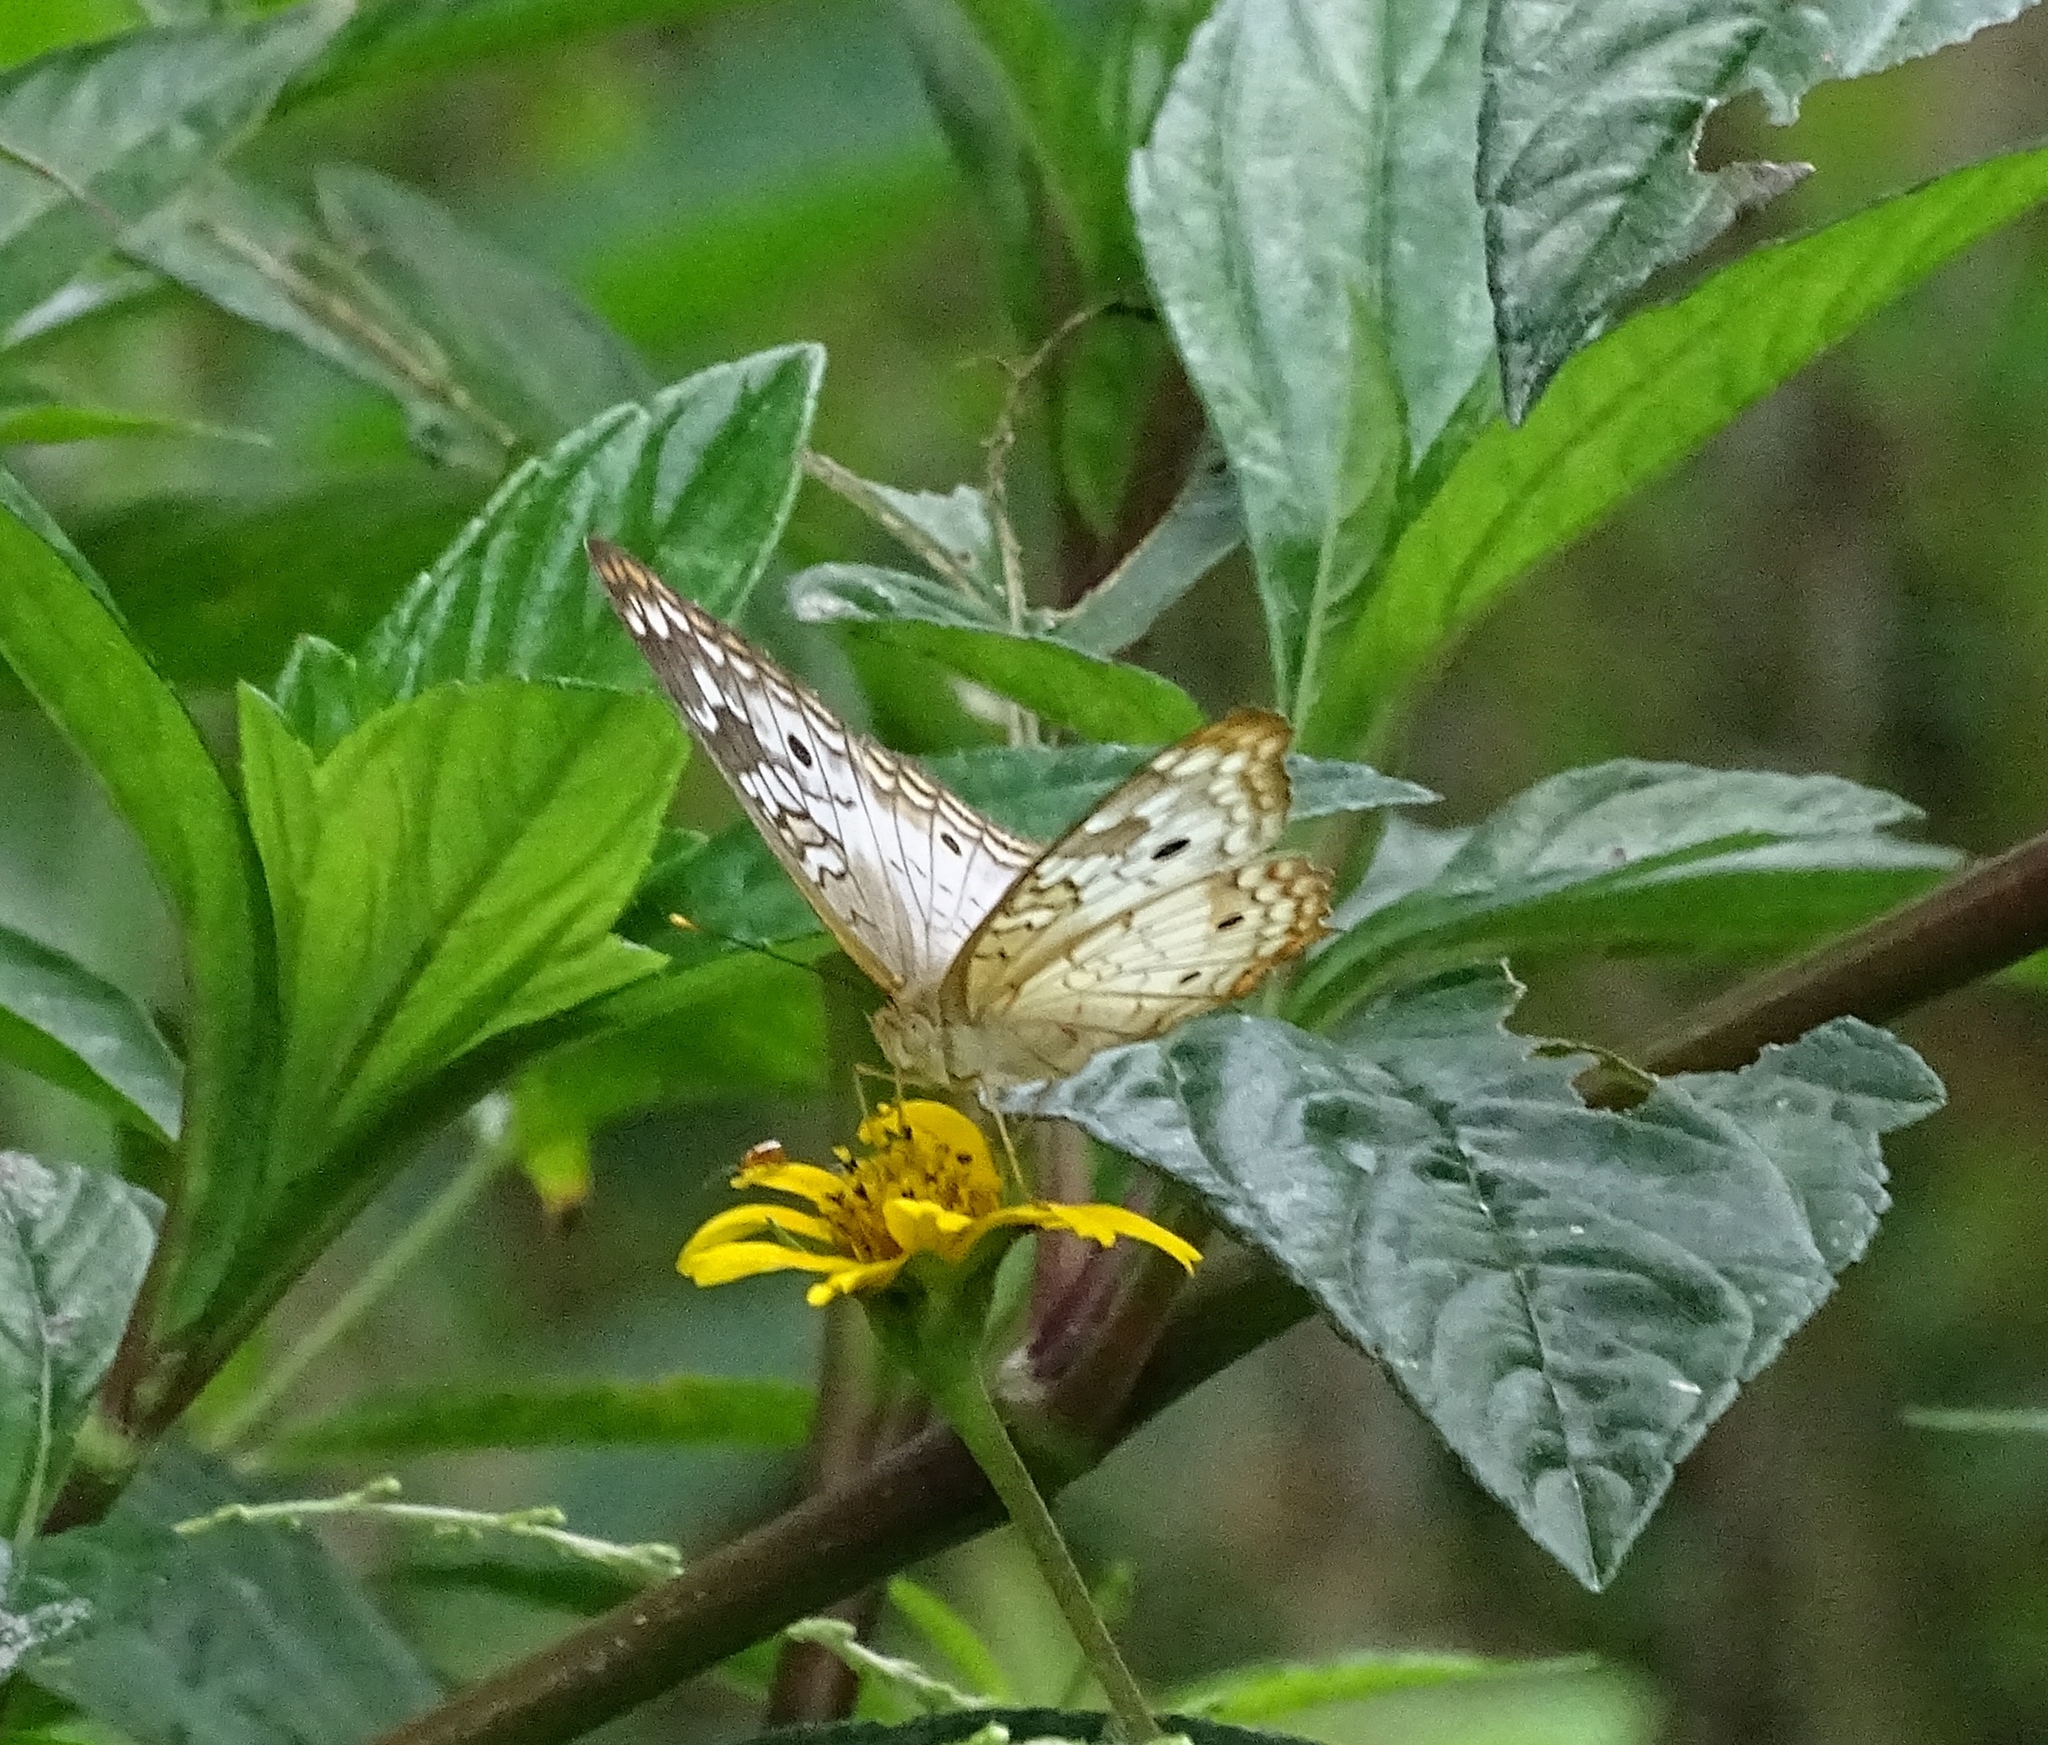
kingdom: Animalia
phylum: Arthropoda
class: Insecta
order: Lepidoptera
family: Nymphalidae
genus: Anartia
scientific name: Anartia jatrophae
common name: White peacock
